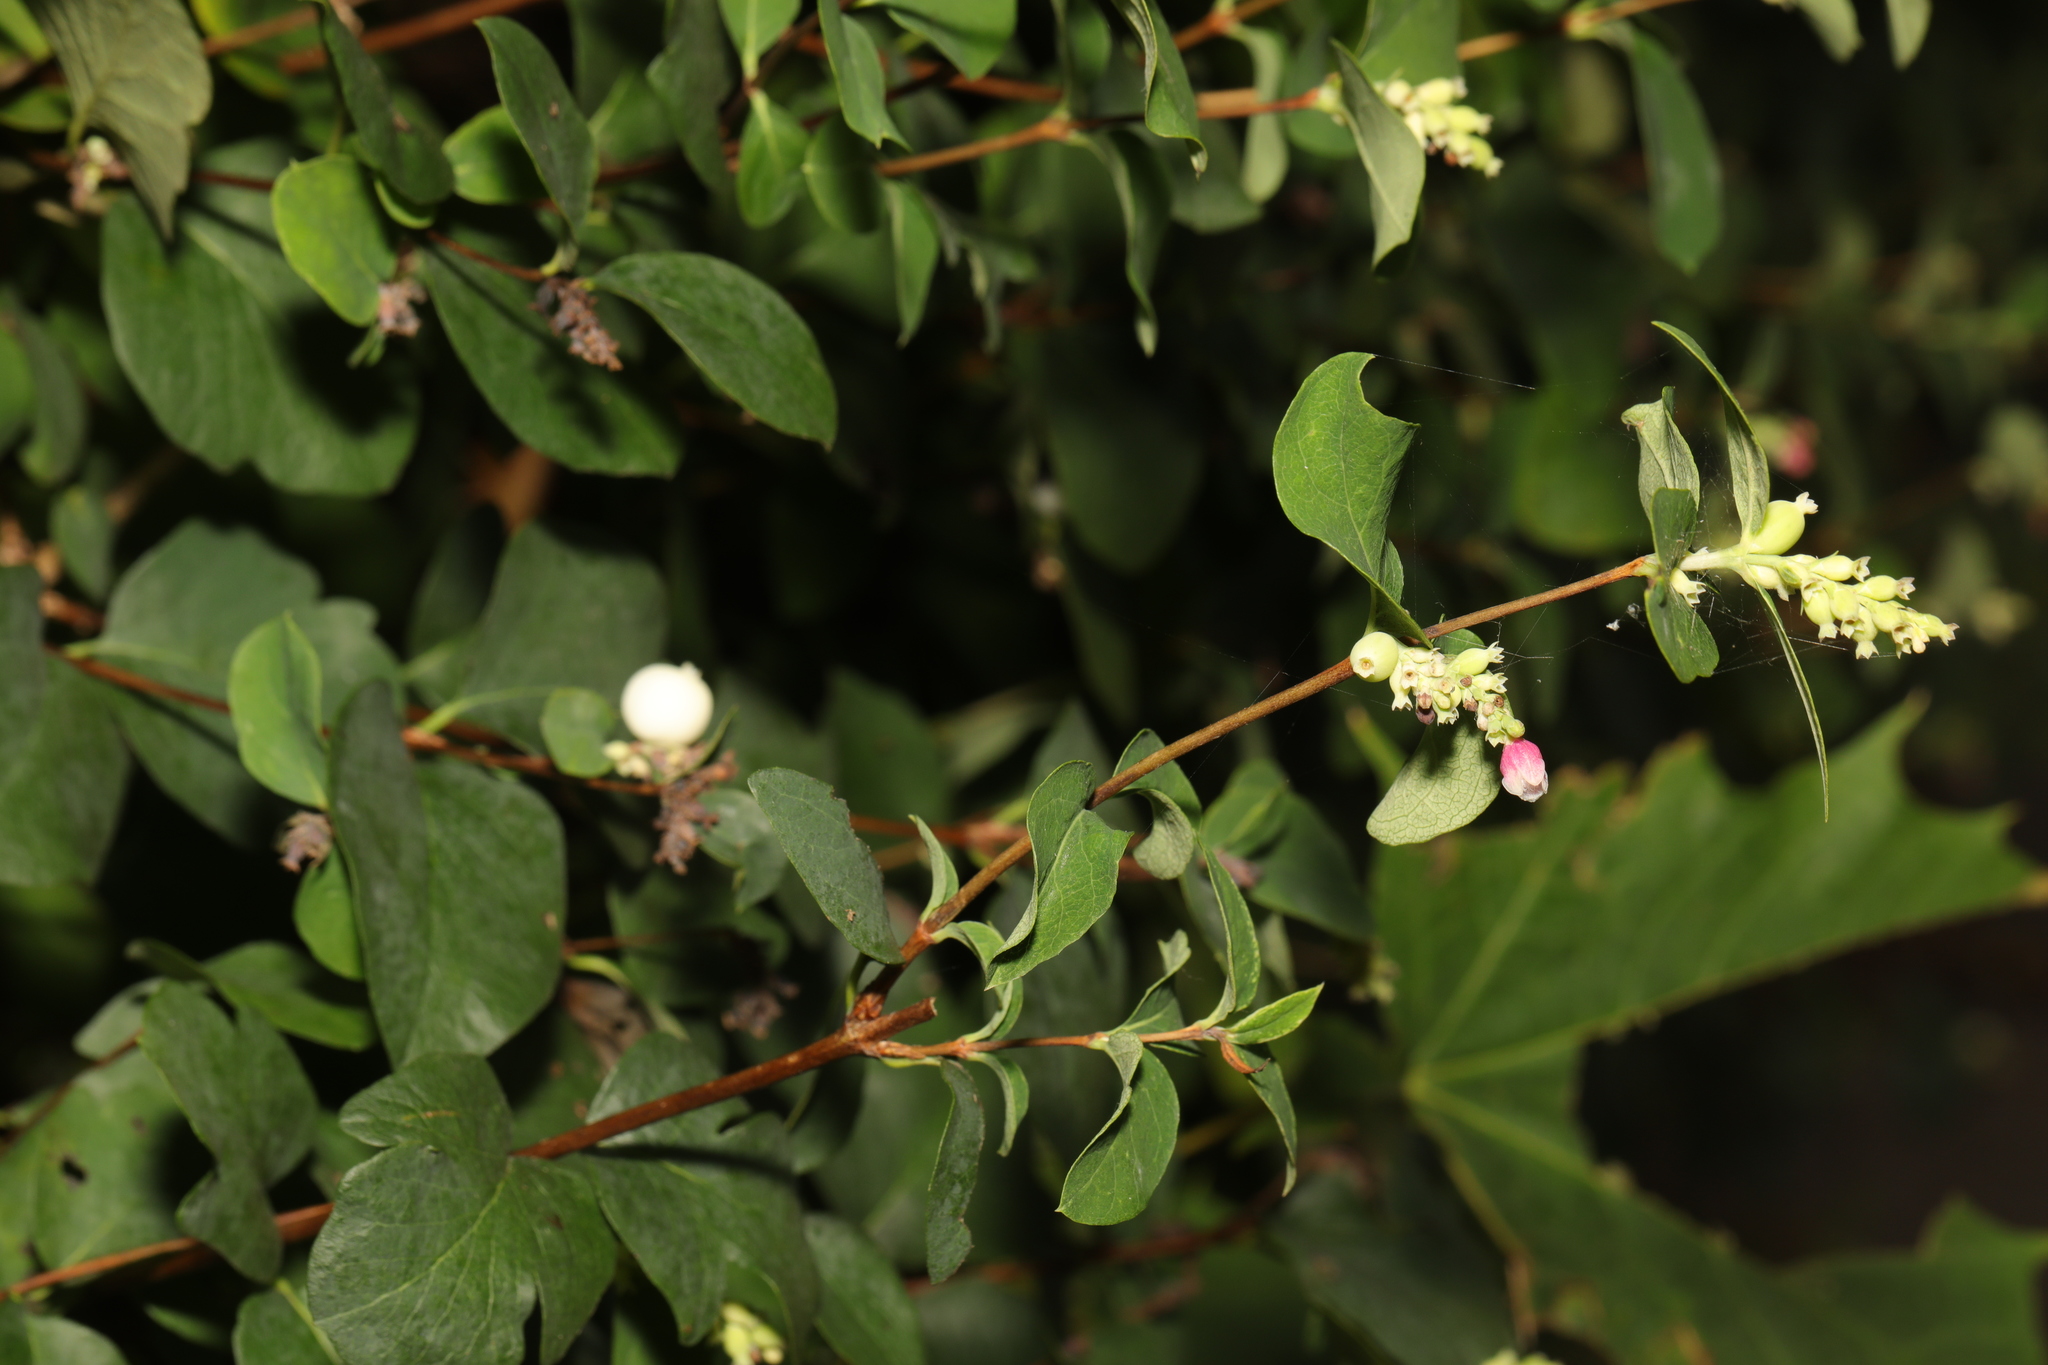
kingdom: Plantae
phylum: Tracheophyta
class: Magnoliopsida
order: Dipsacales
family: Caprifoliaceae
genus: Symphoricarpos
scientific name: Symphoricarpos albus
